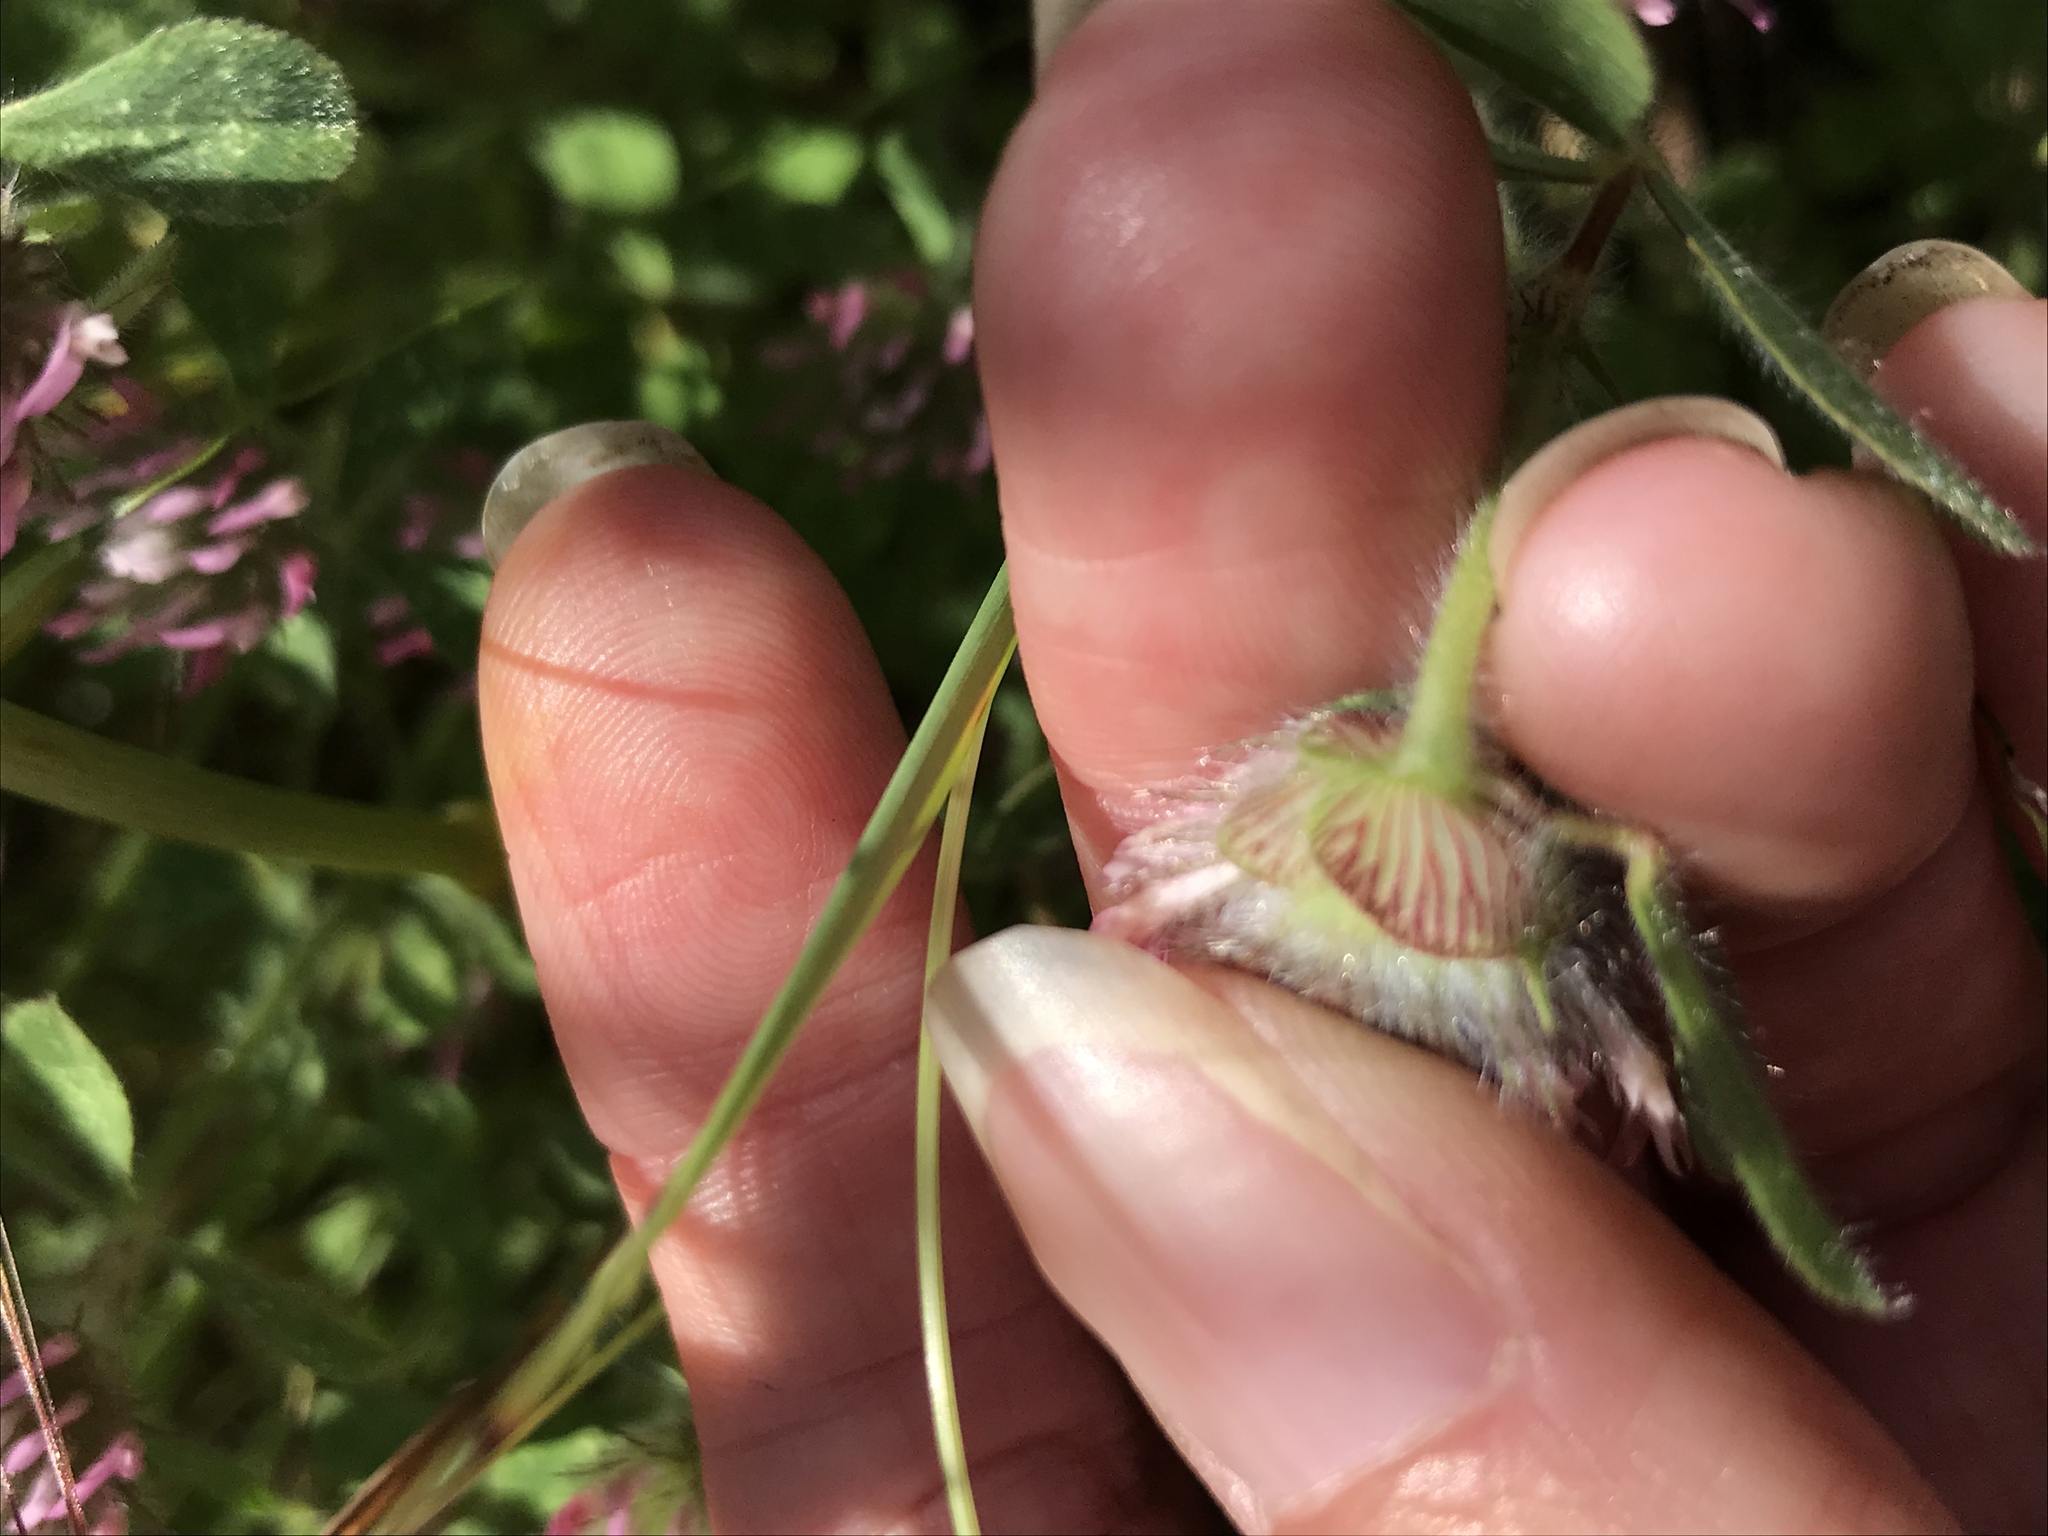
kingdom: Plantae
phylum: Tracheophyta
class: Magnoliopsida
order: Fabales
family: Fabaceae
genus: Trifolium
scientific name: Trifolium hirtum
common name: Rose clover
